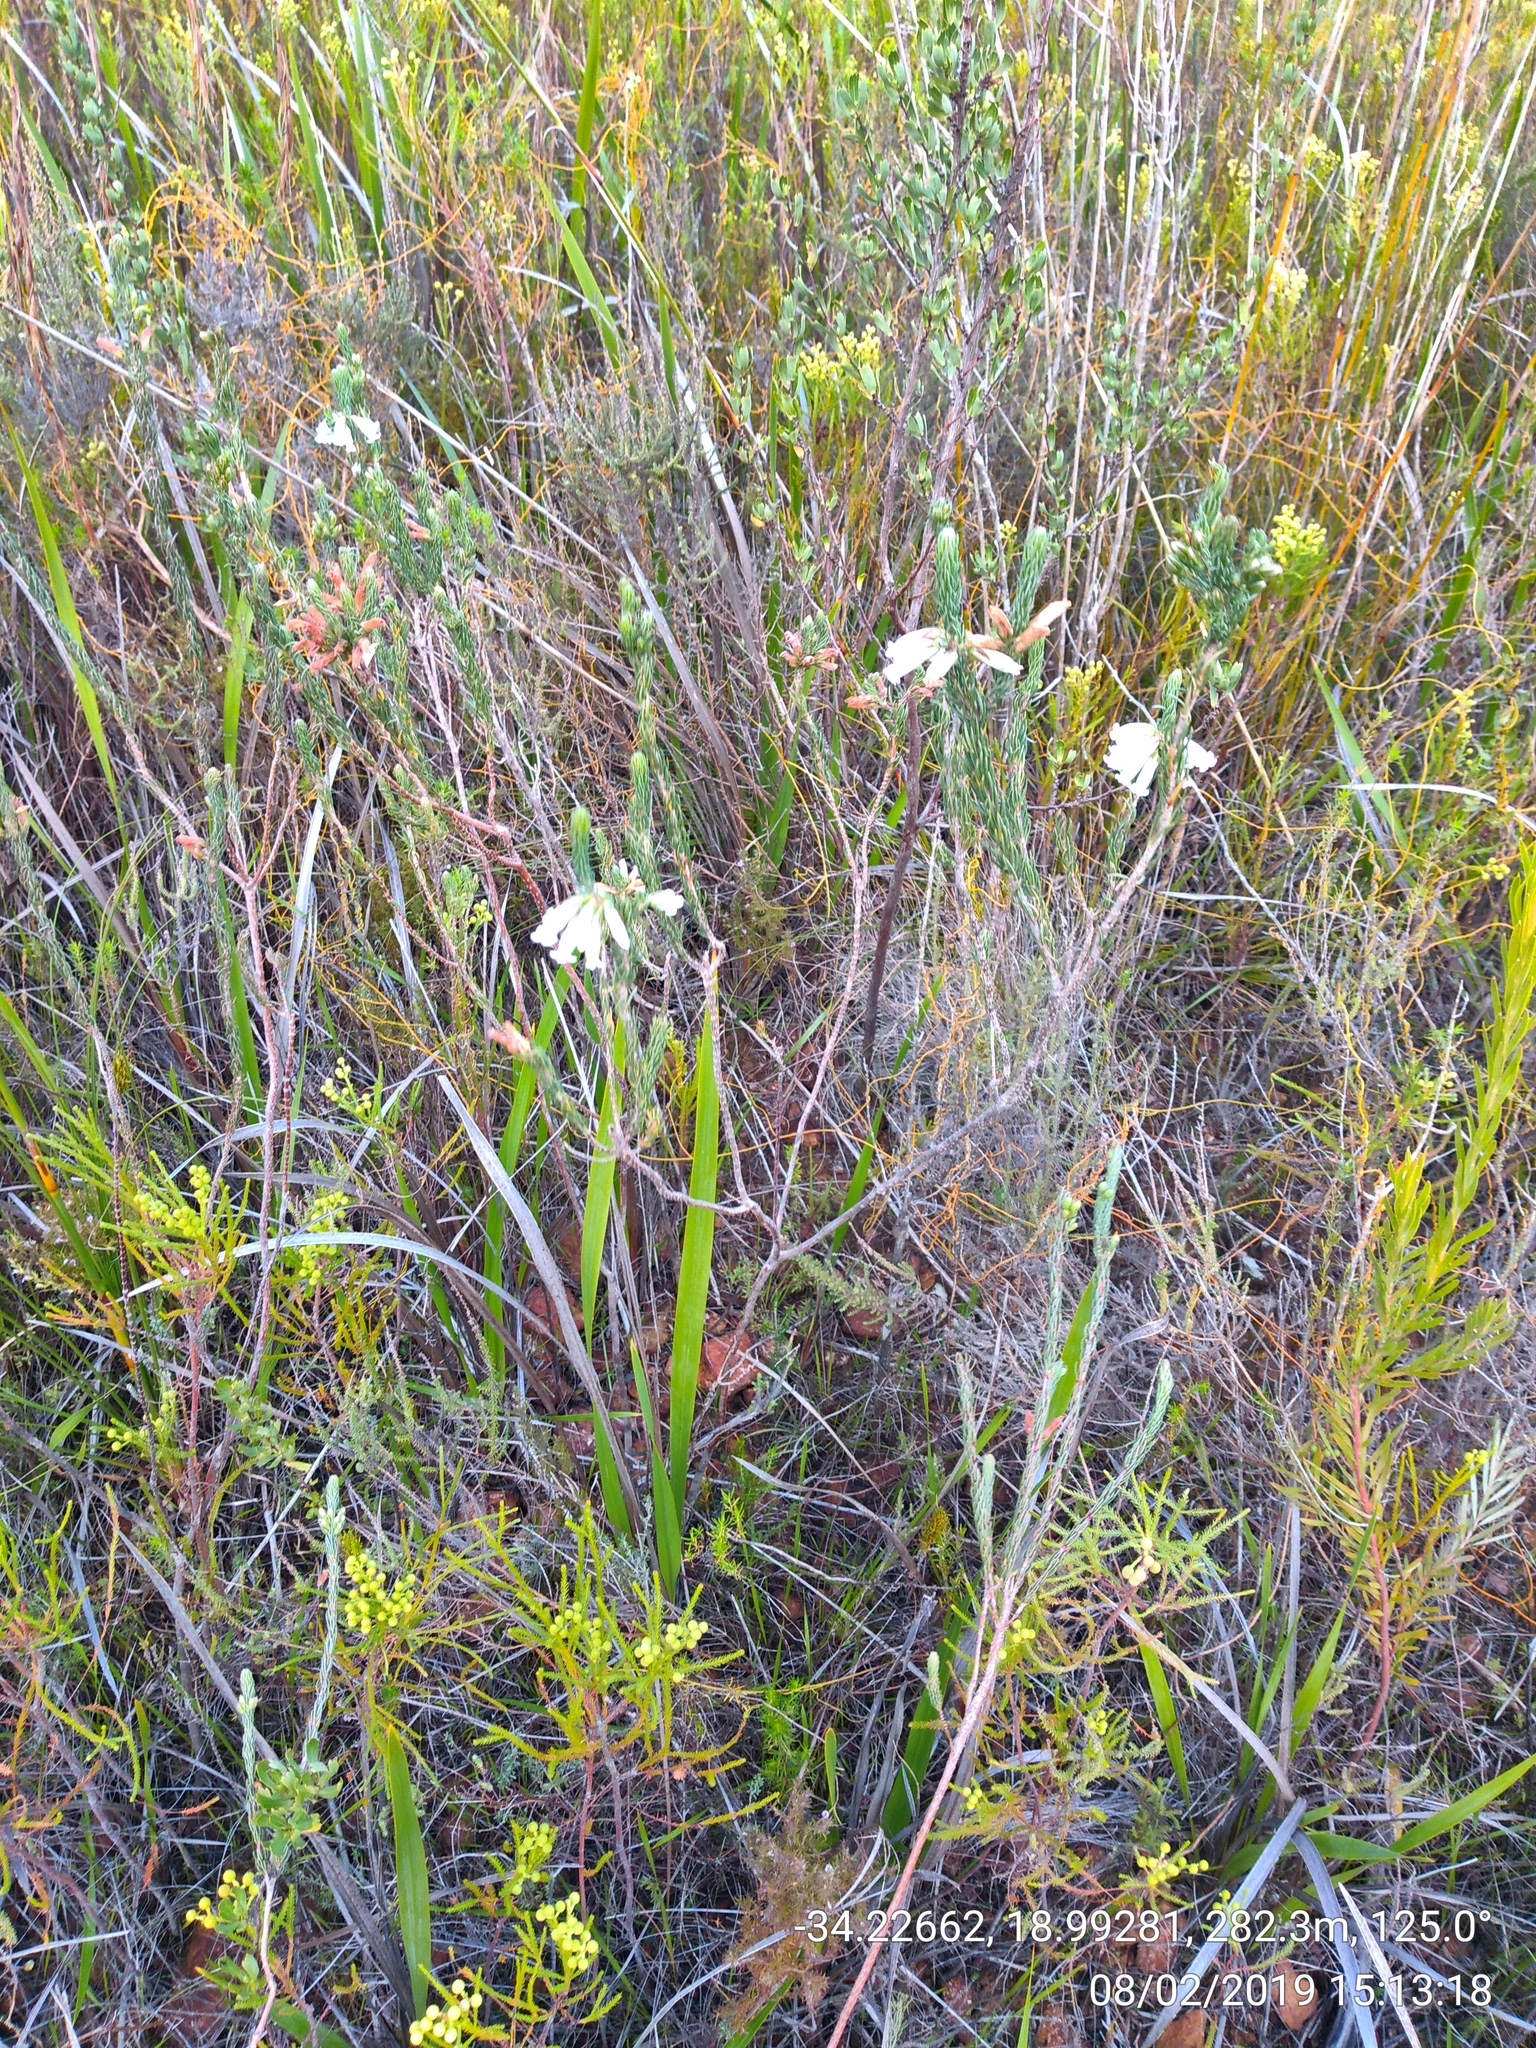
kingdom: Plantae
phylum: Tracheophyta
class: Magnoliopsida
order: Ericales
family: Ericaceae
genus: Erica
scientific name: Erica viscaria
